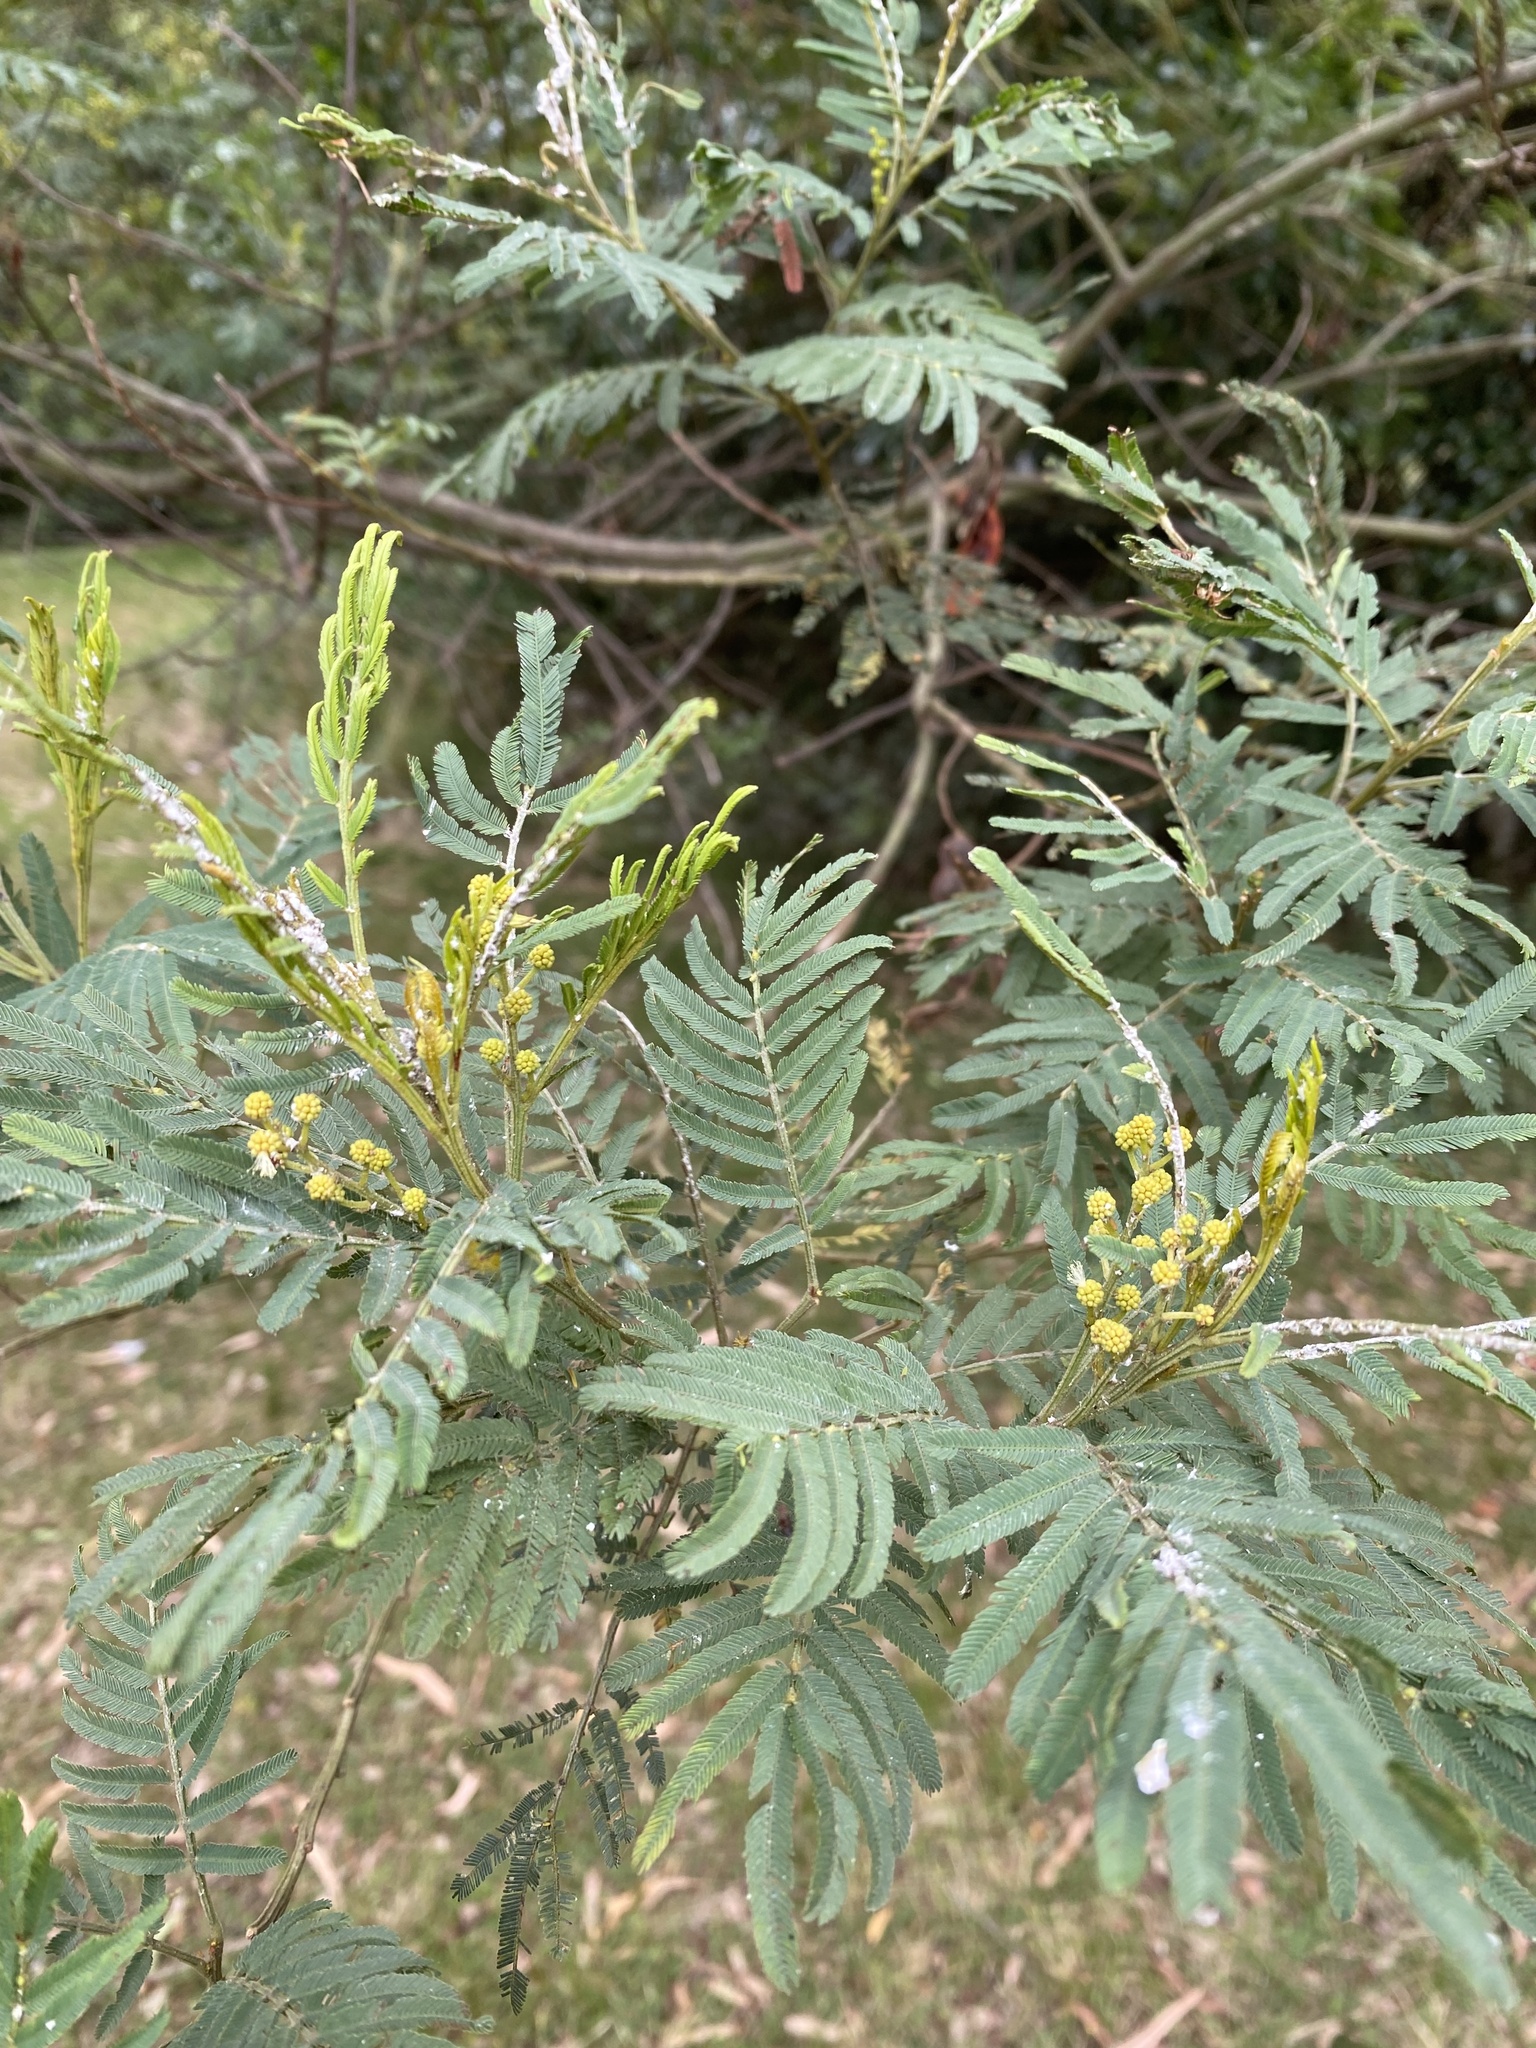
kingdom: Plantae
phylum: Tracheophyta
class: Magnoliopsida
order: Fabales
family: Fabaceae
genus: Acacia
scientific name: Acacia irrorata
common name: Green wattle
